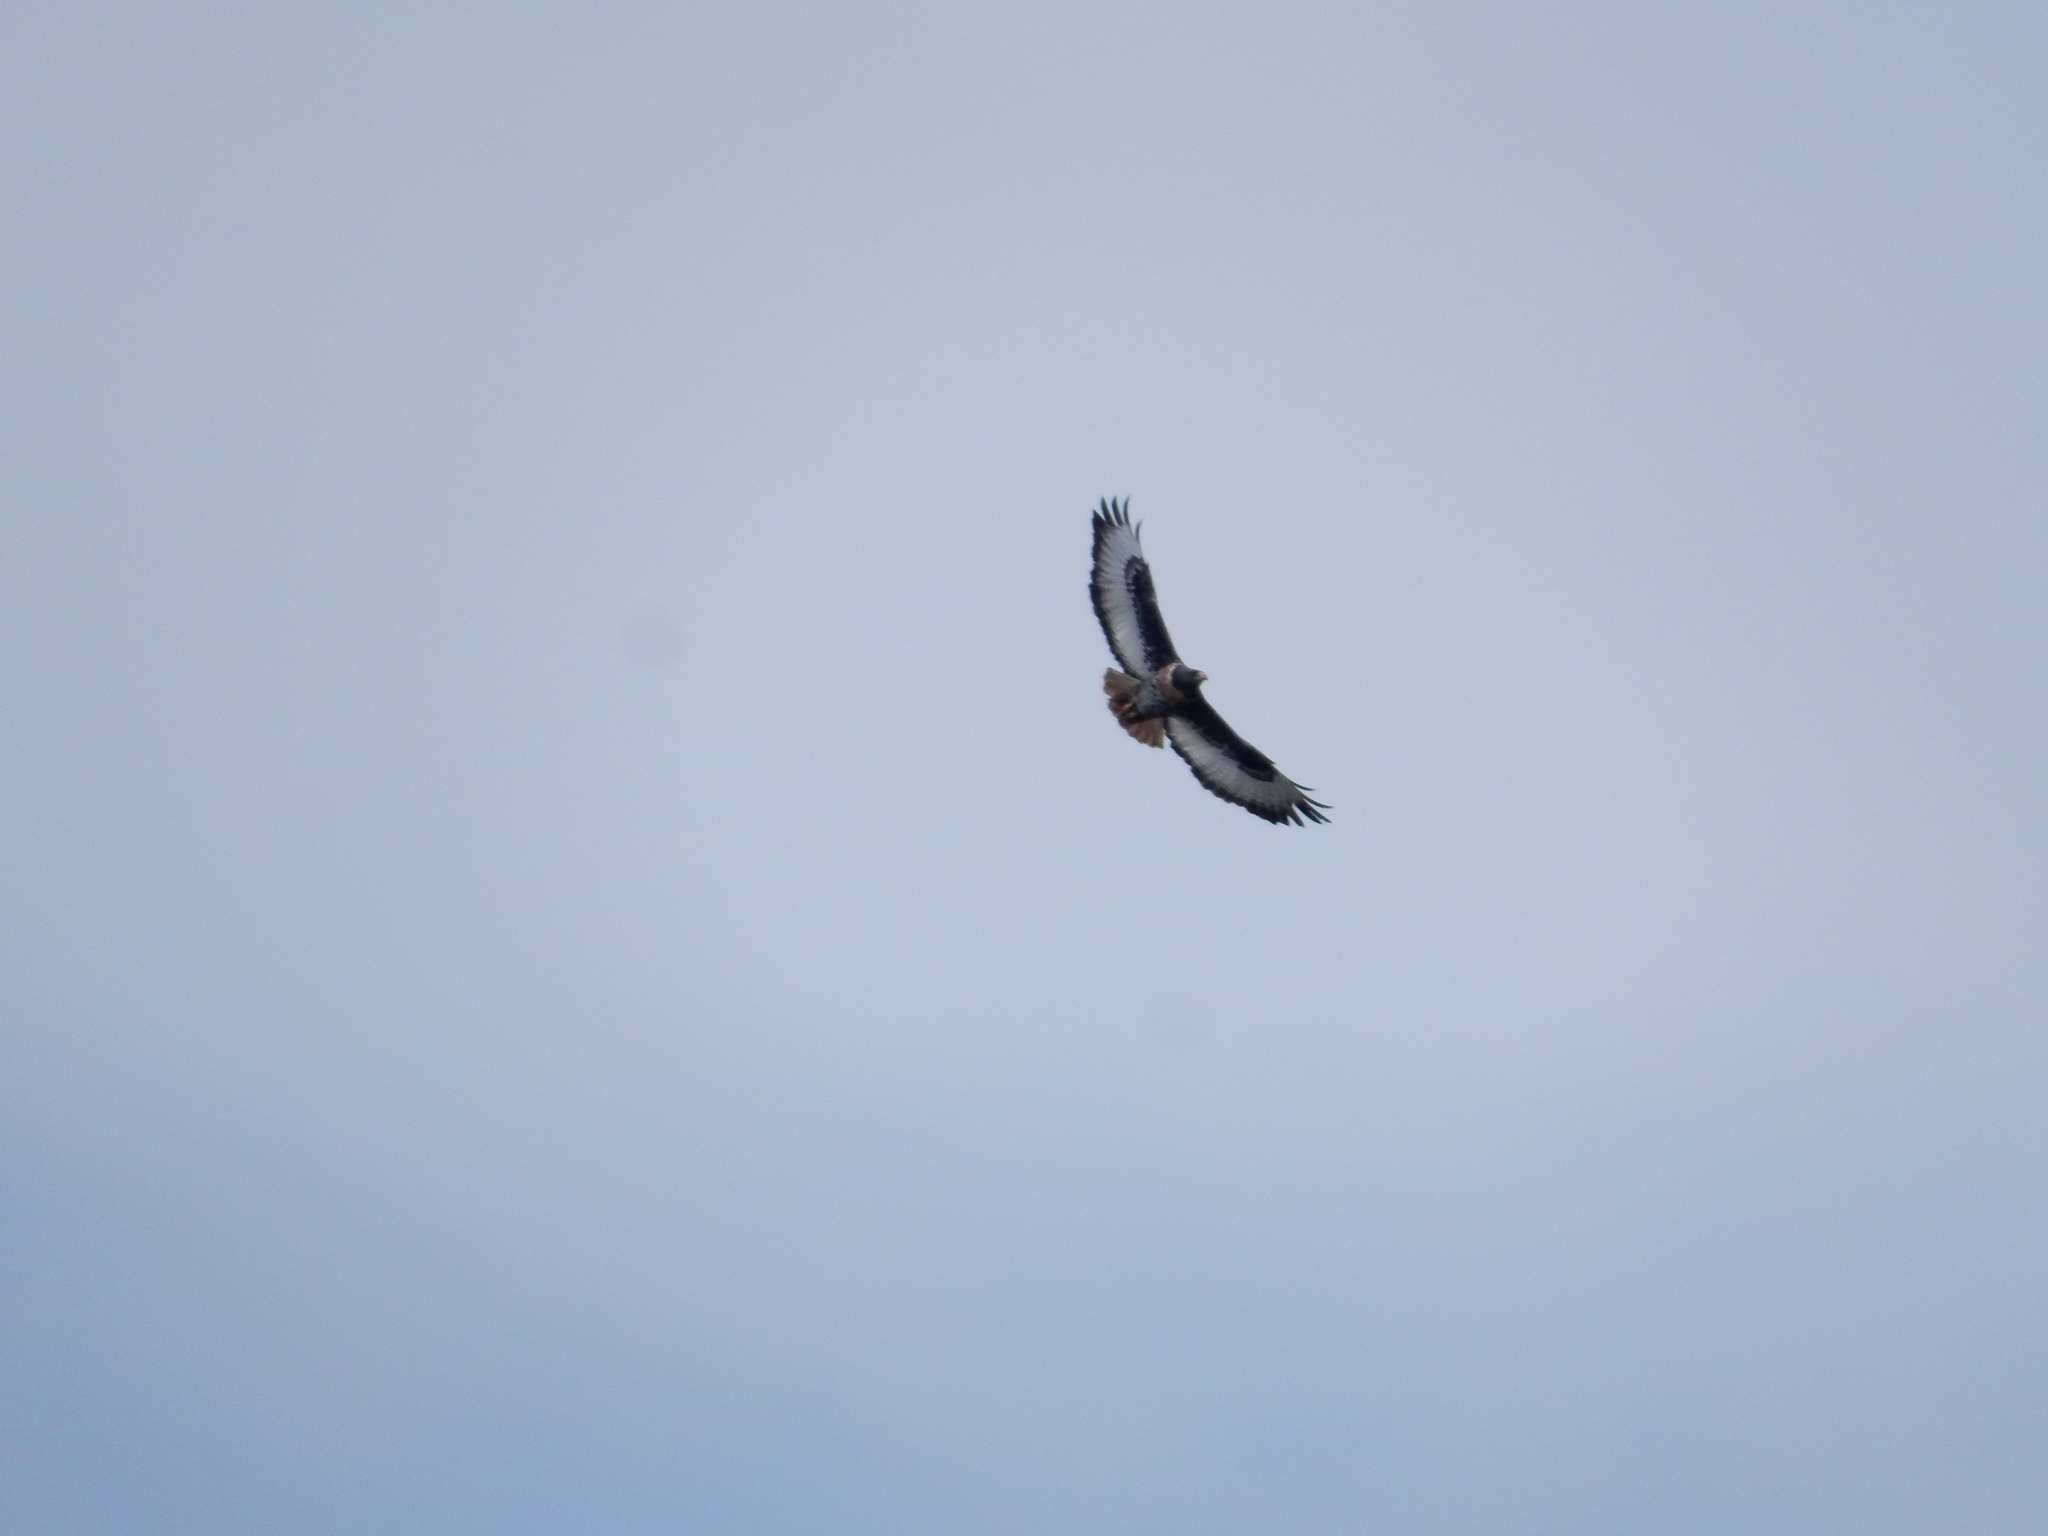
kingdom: Animalia
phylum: Chordata
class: Aves
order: Accipitriformes
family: Accipitridae
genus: Buteo
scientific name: Buteo rufofuscus
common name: Jackal buzzard
